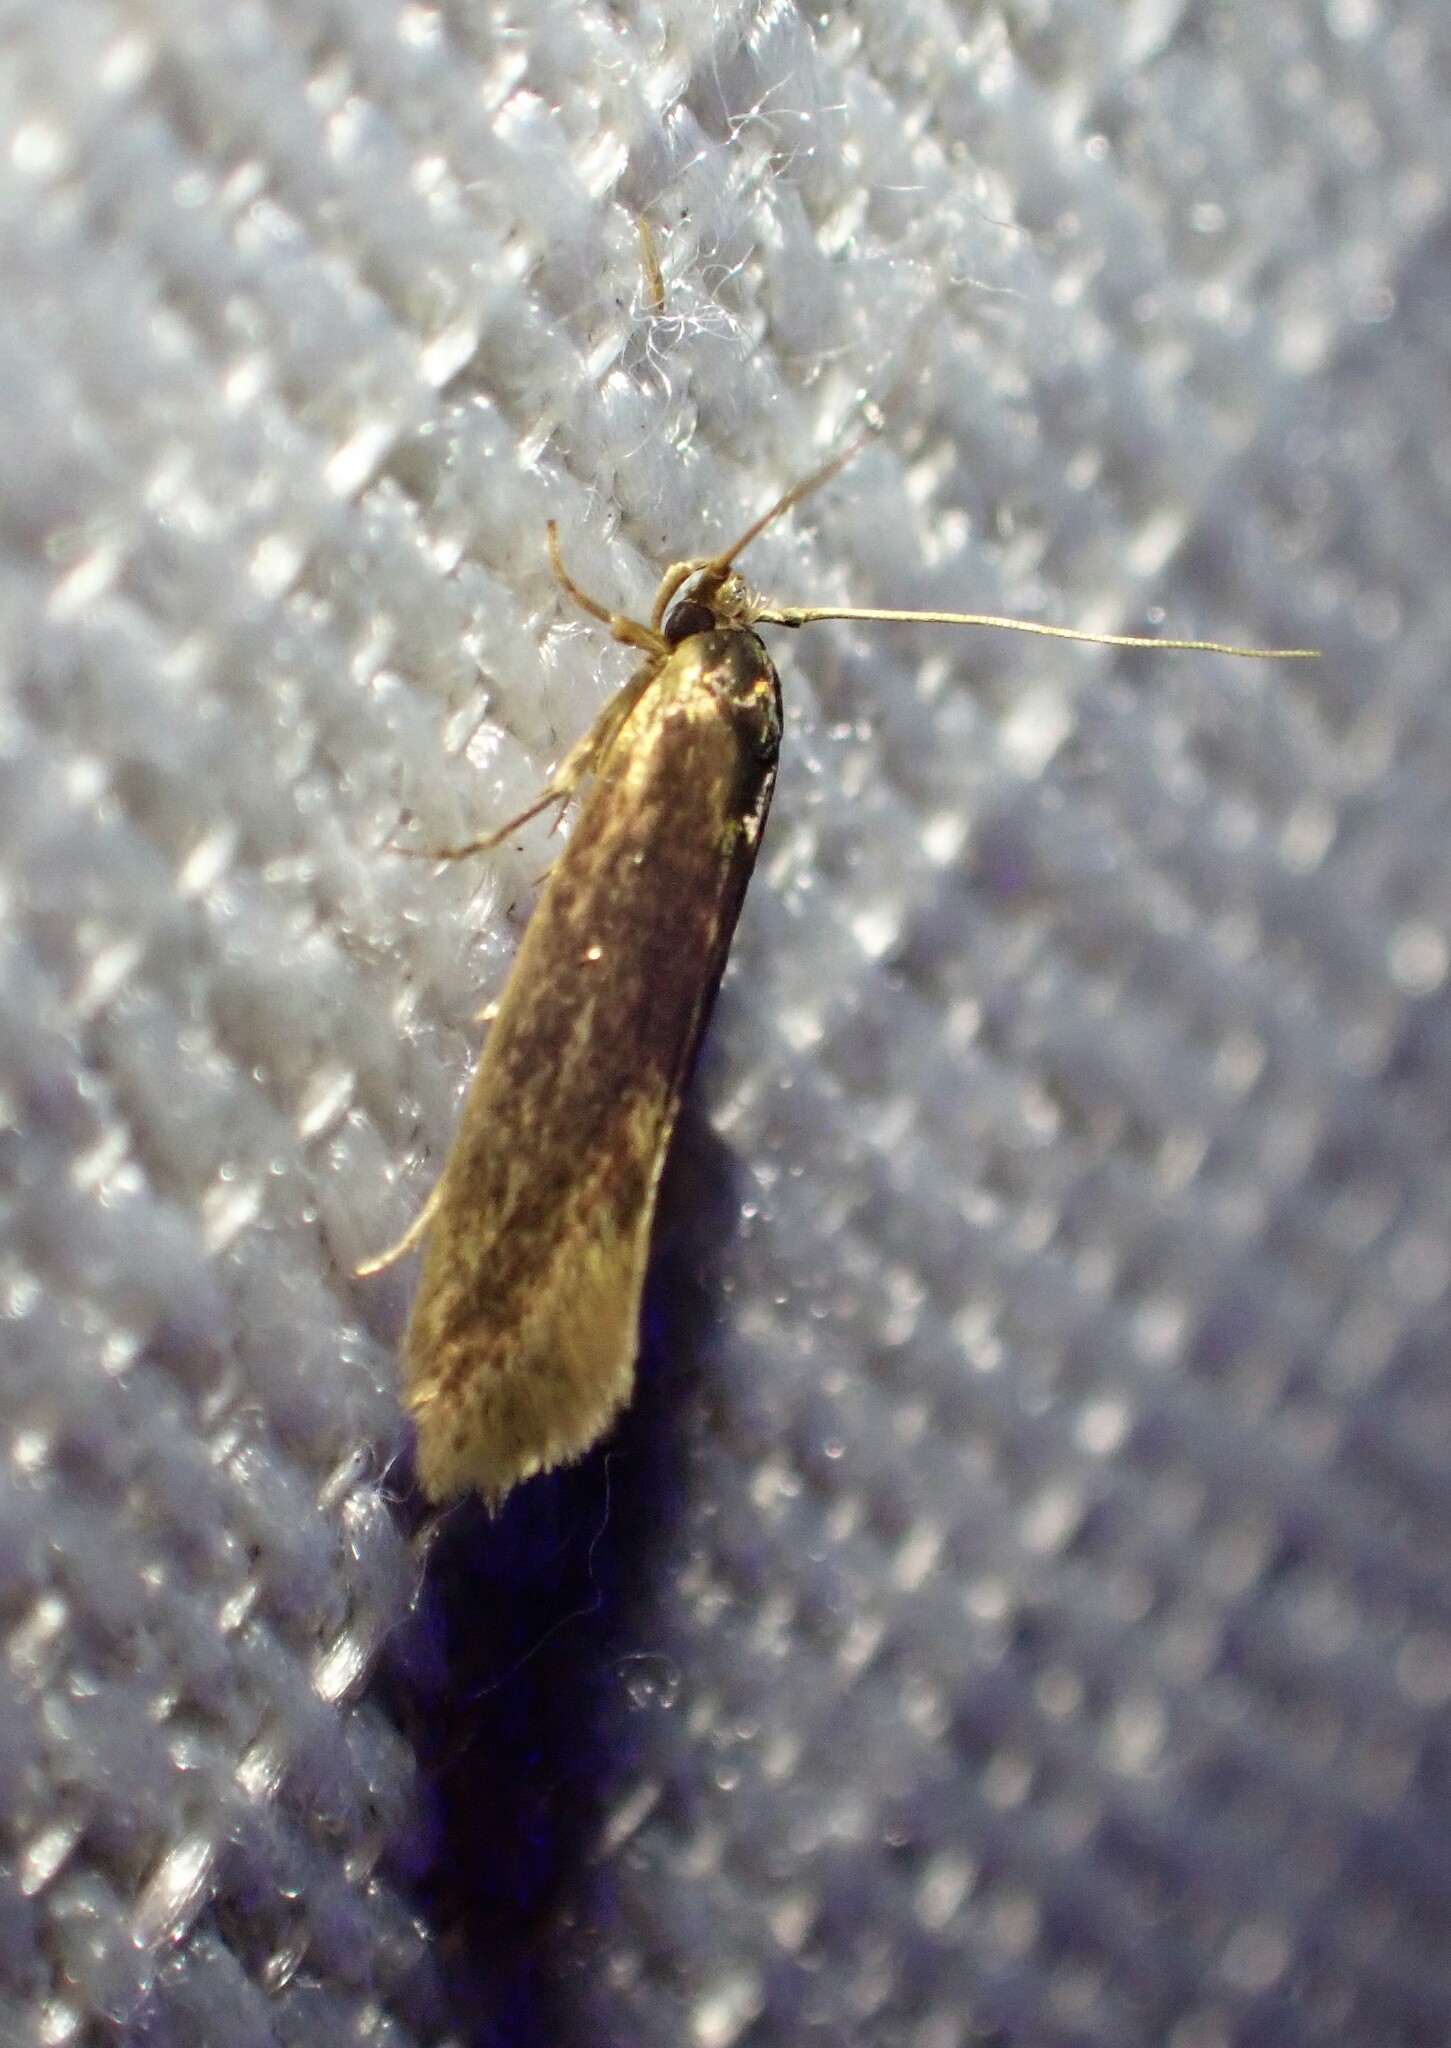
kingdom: Animalia
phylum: Arthropoda
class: Insecta
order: Lepidoptera
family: Tineidae
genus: Opogona
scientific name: Opogona omoscopa
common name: Moth
